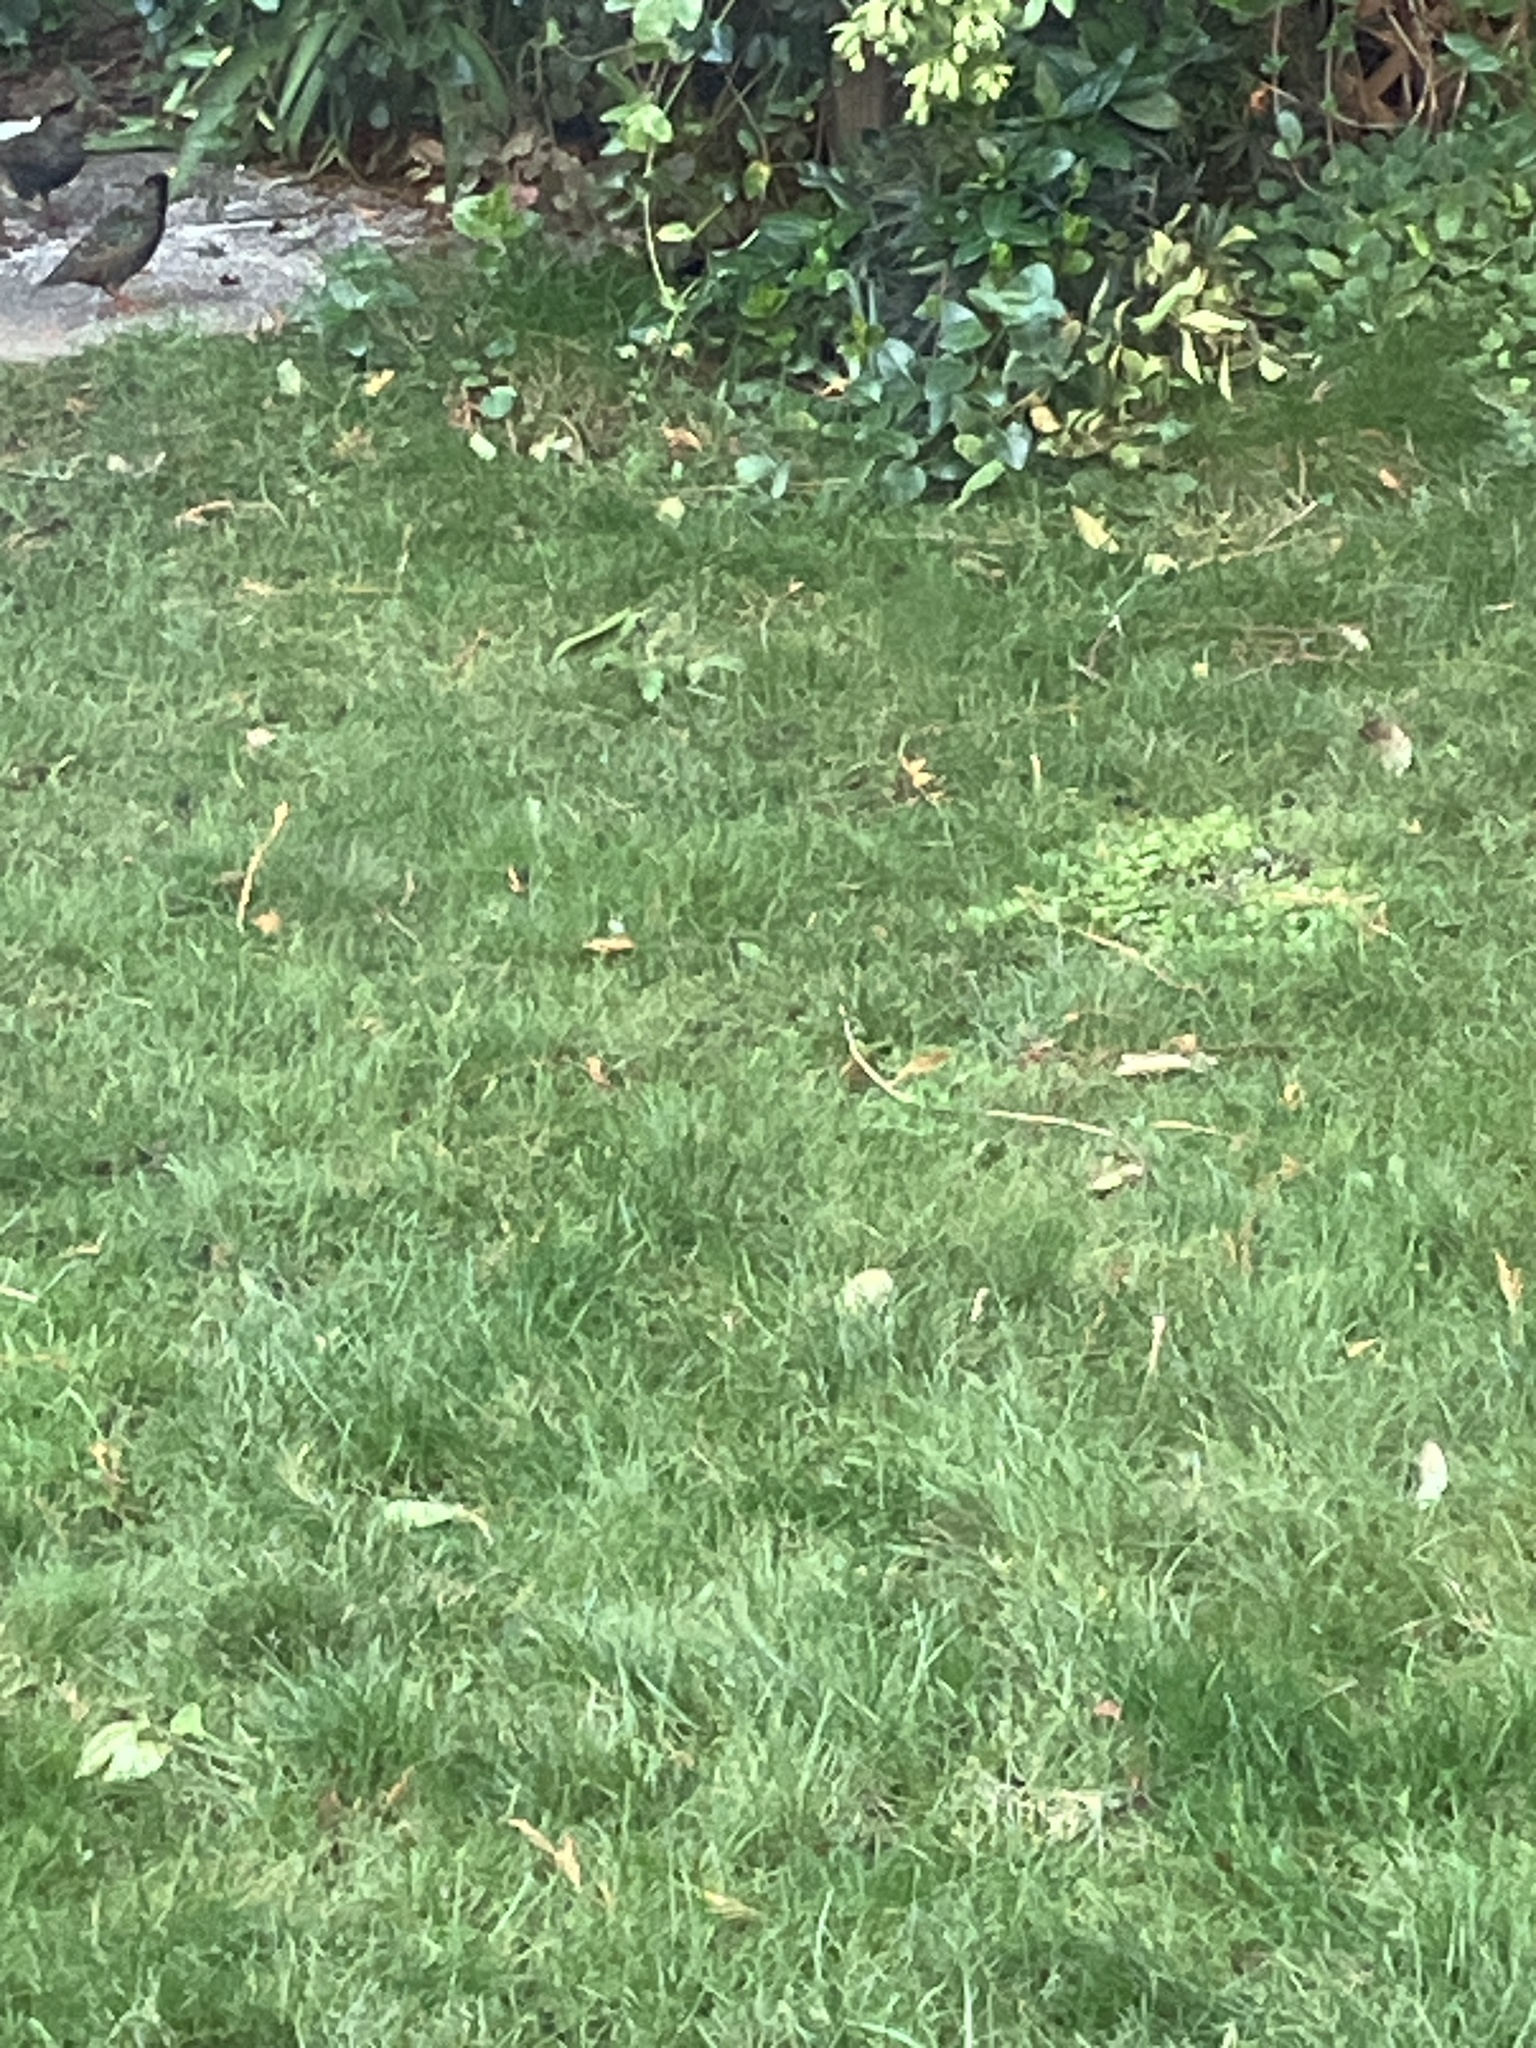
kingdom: Animalia
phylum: Chordata
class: Aves
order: Passeriformes
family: Sturnidae
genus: Sturnus
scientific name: Sturnus vulgaris
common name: Common starling
